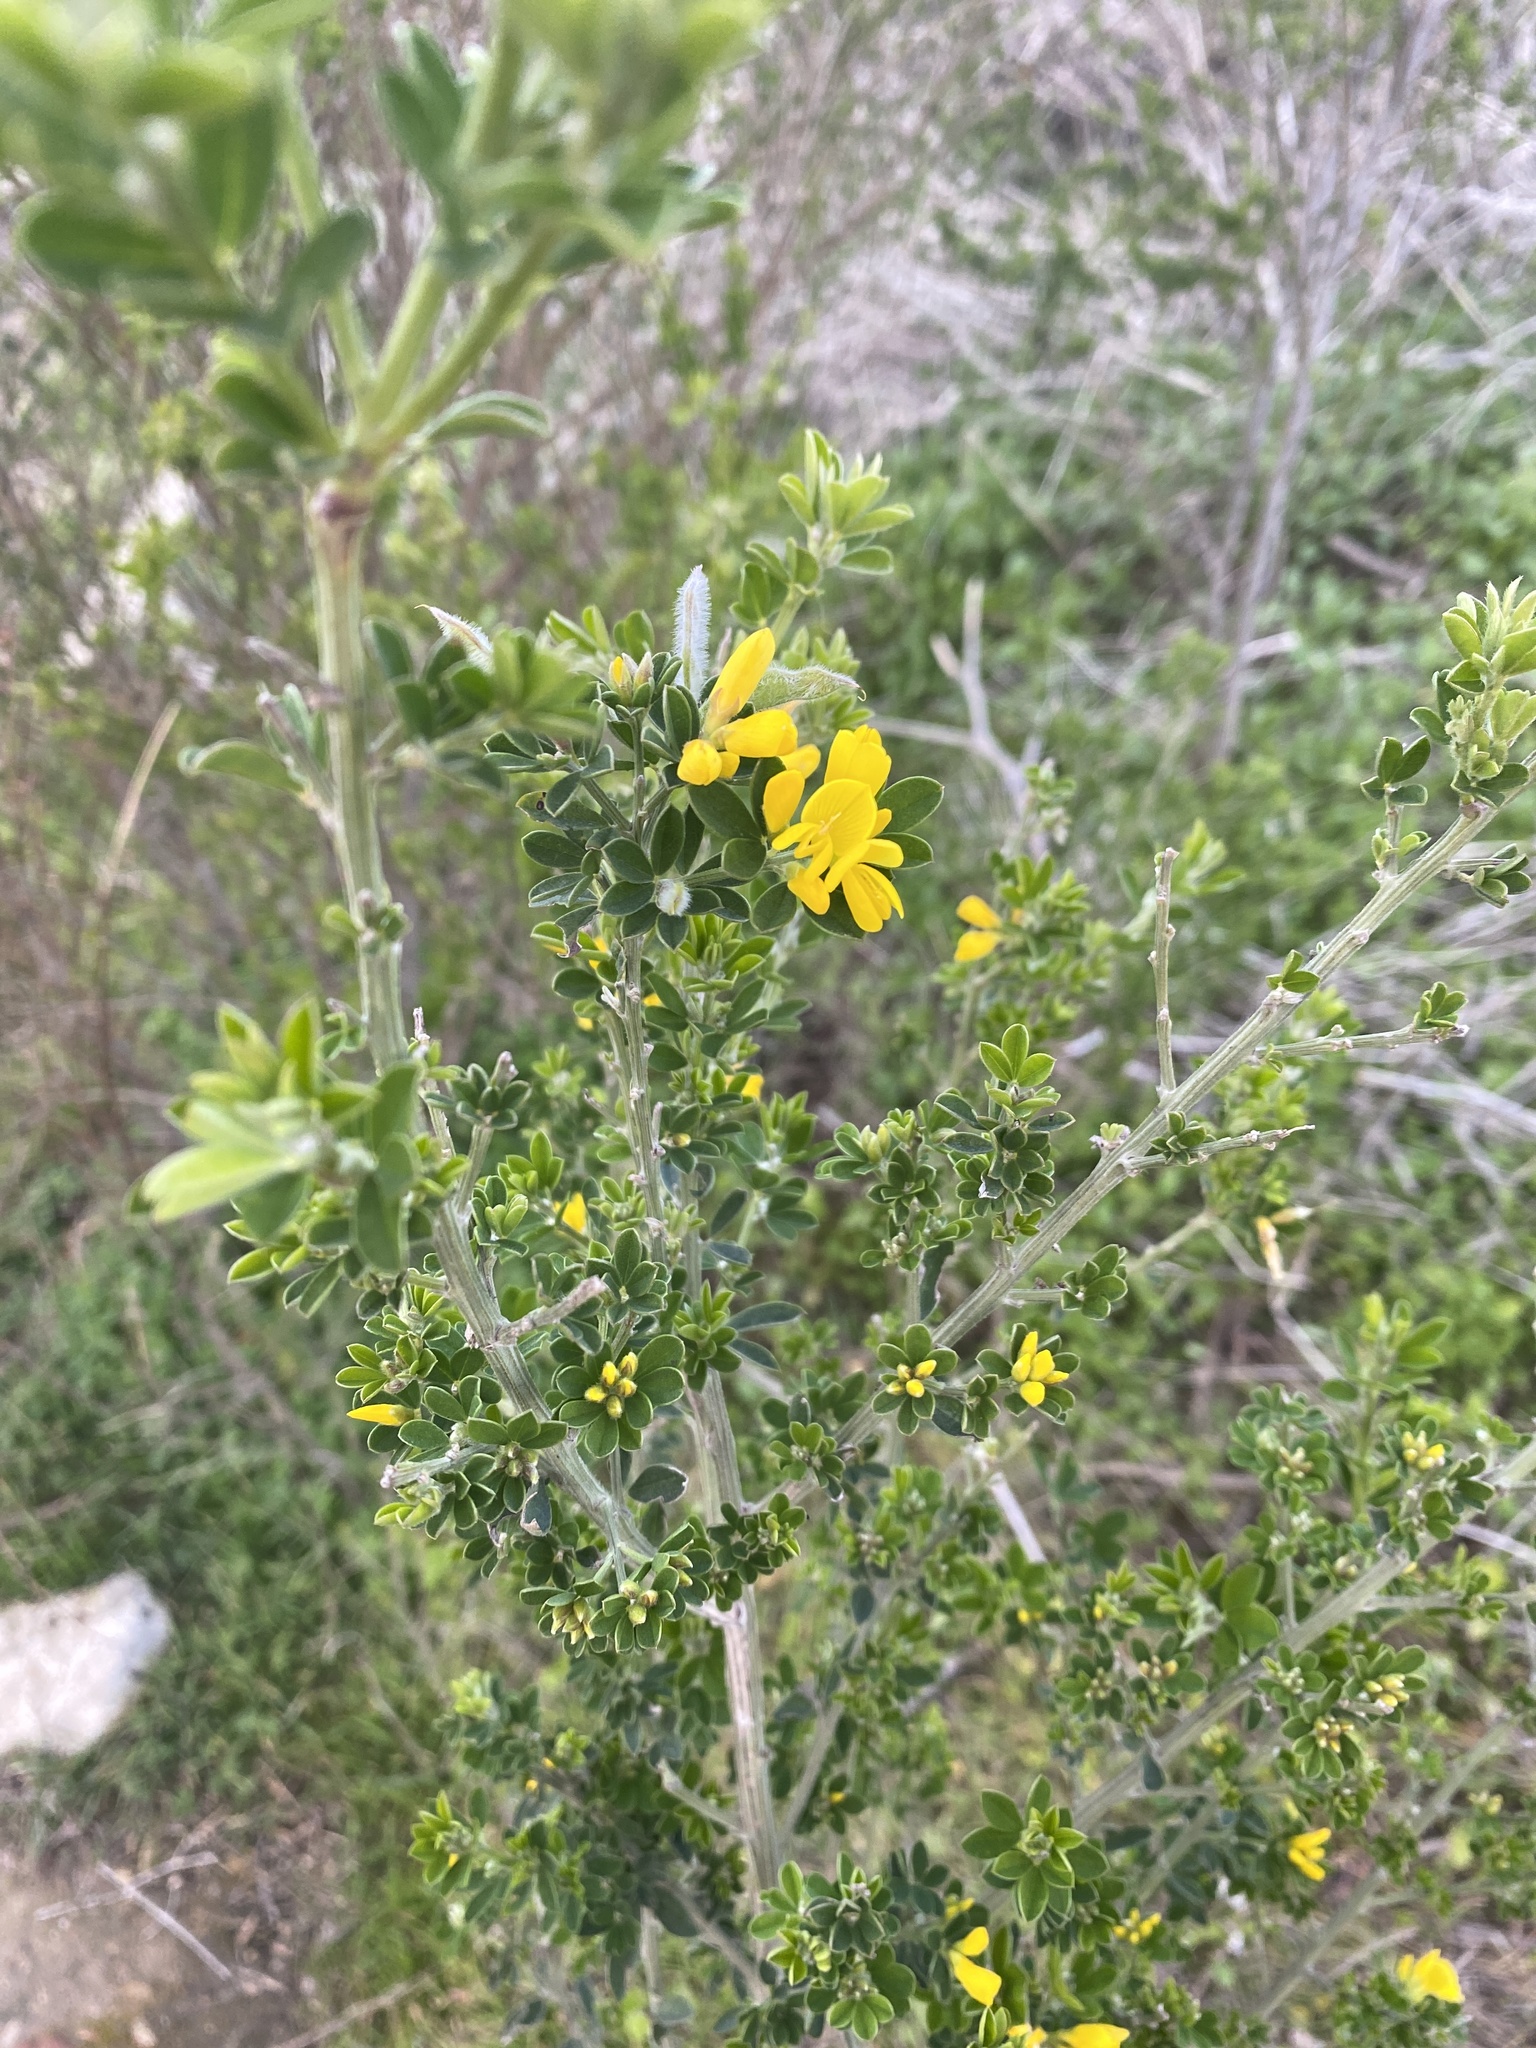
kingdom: Plantae
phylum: Tracheophyta
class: Magnoliopsida
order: Fabales
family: Fabaceae
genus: Genista
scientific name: Genista monspessulana
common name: Montpellier broom
